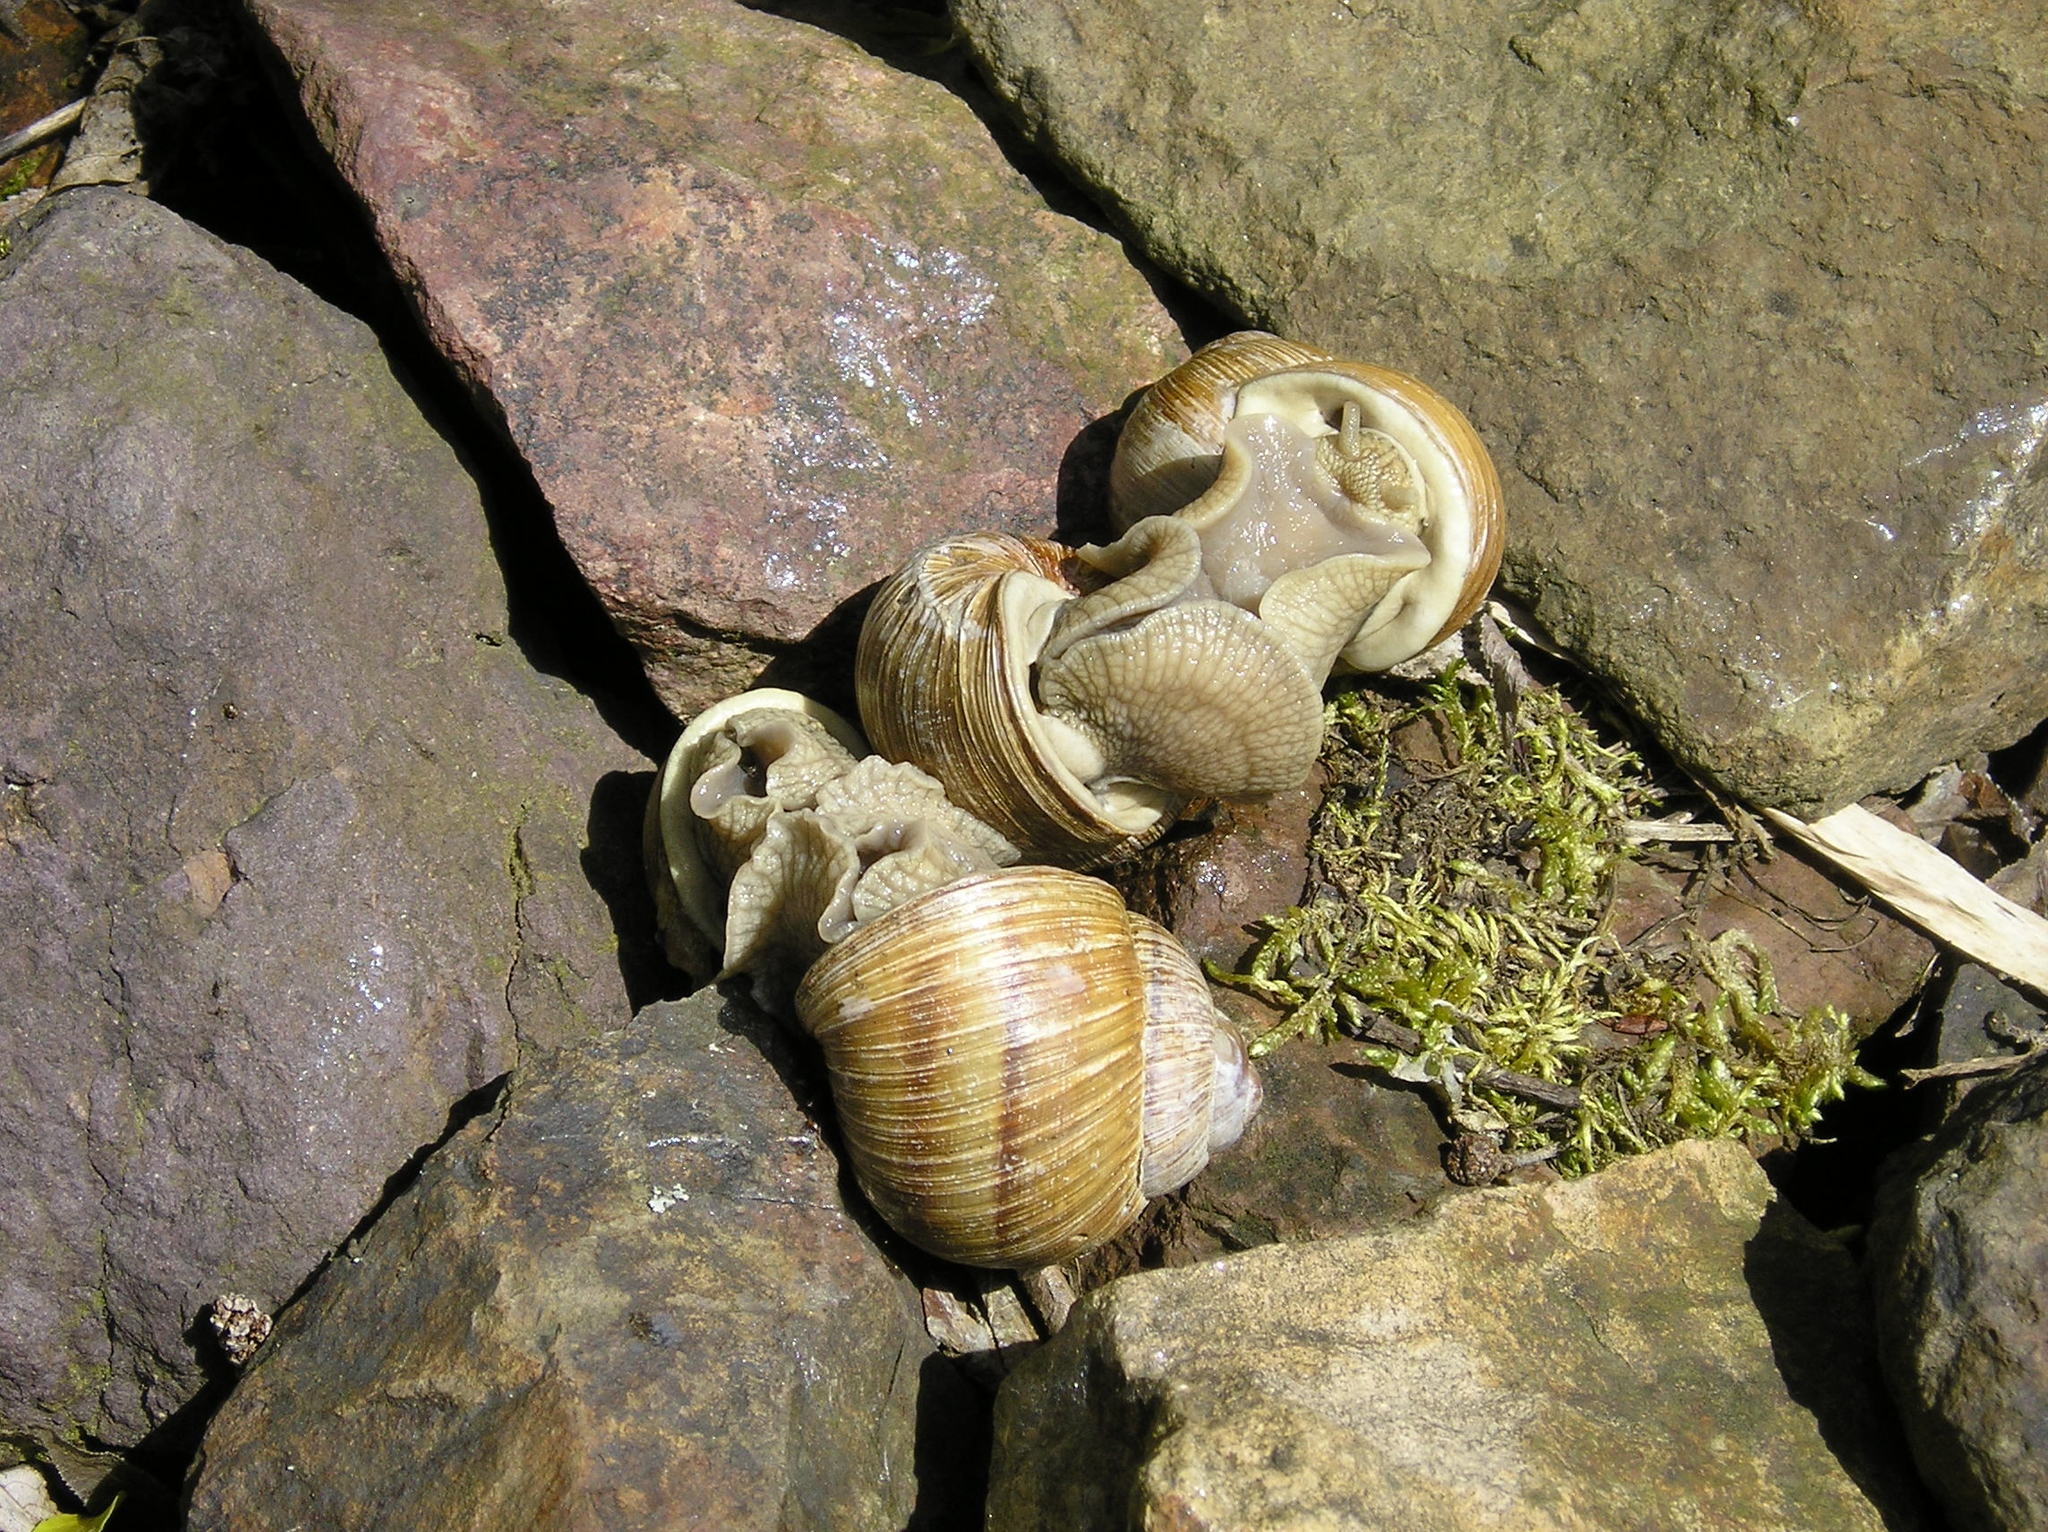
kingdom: Animalia
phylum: Mollusca
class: Gastropoda
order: Stylommatophora
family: Helicidae
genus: Helix
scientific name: Helix pomatia
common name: Roman snail
